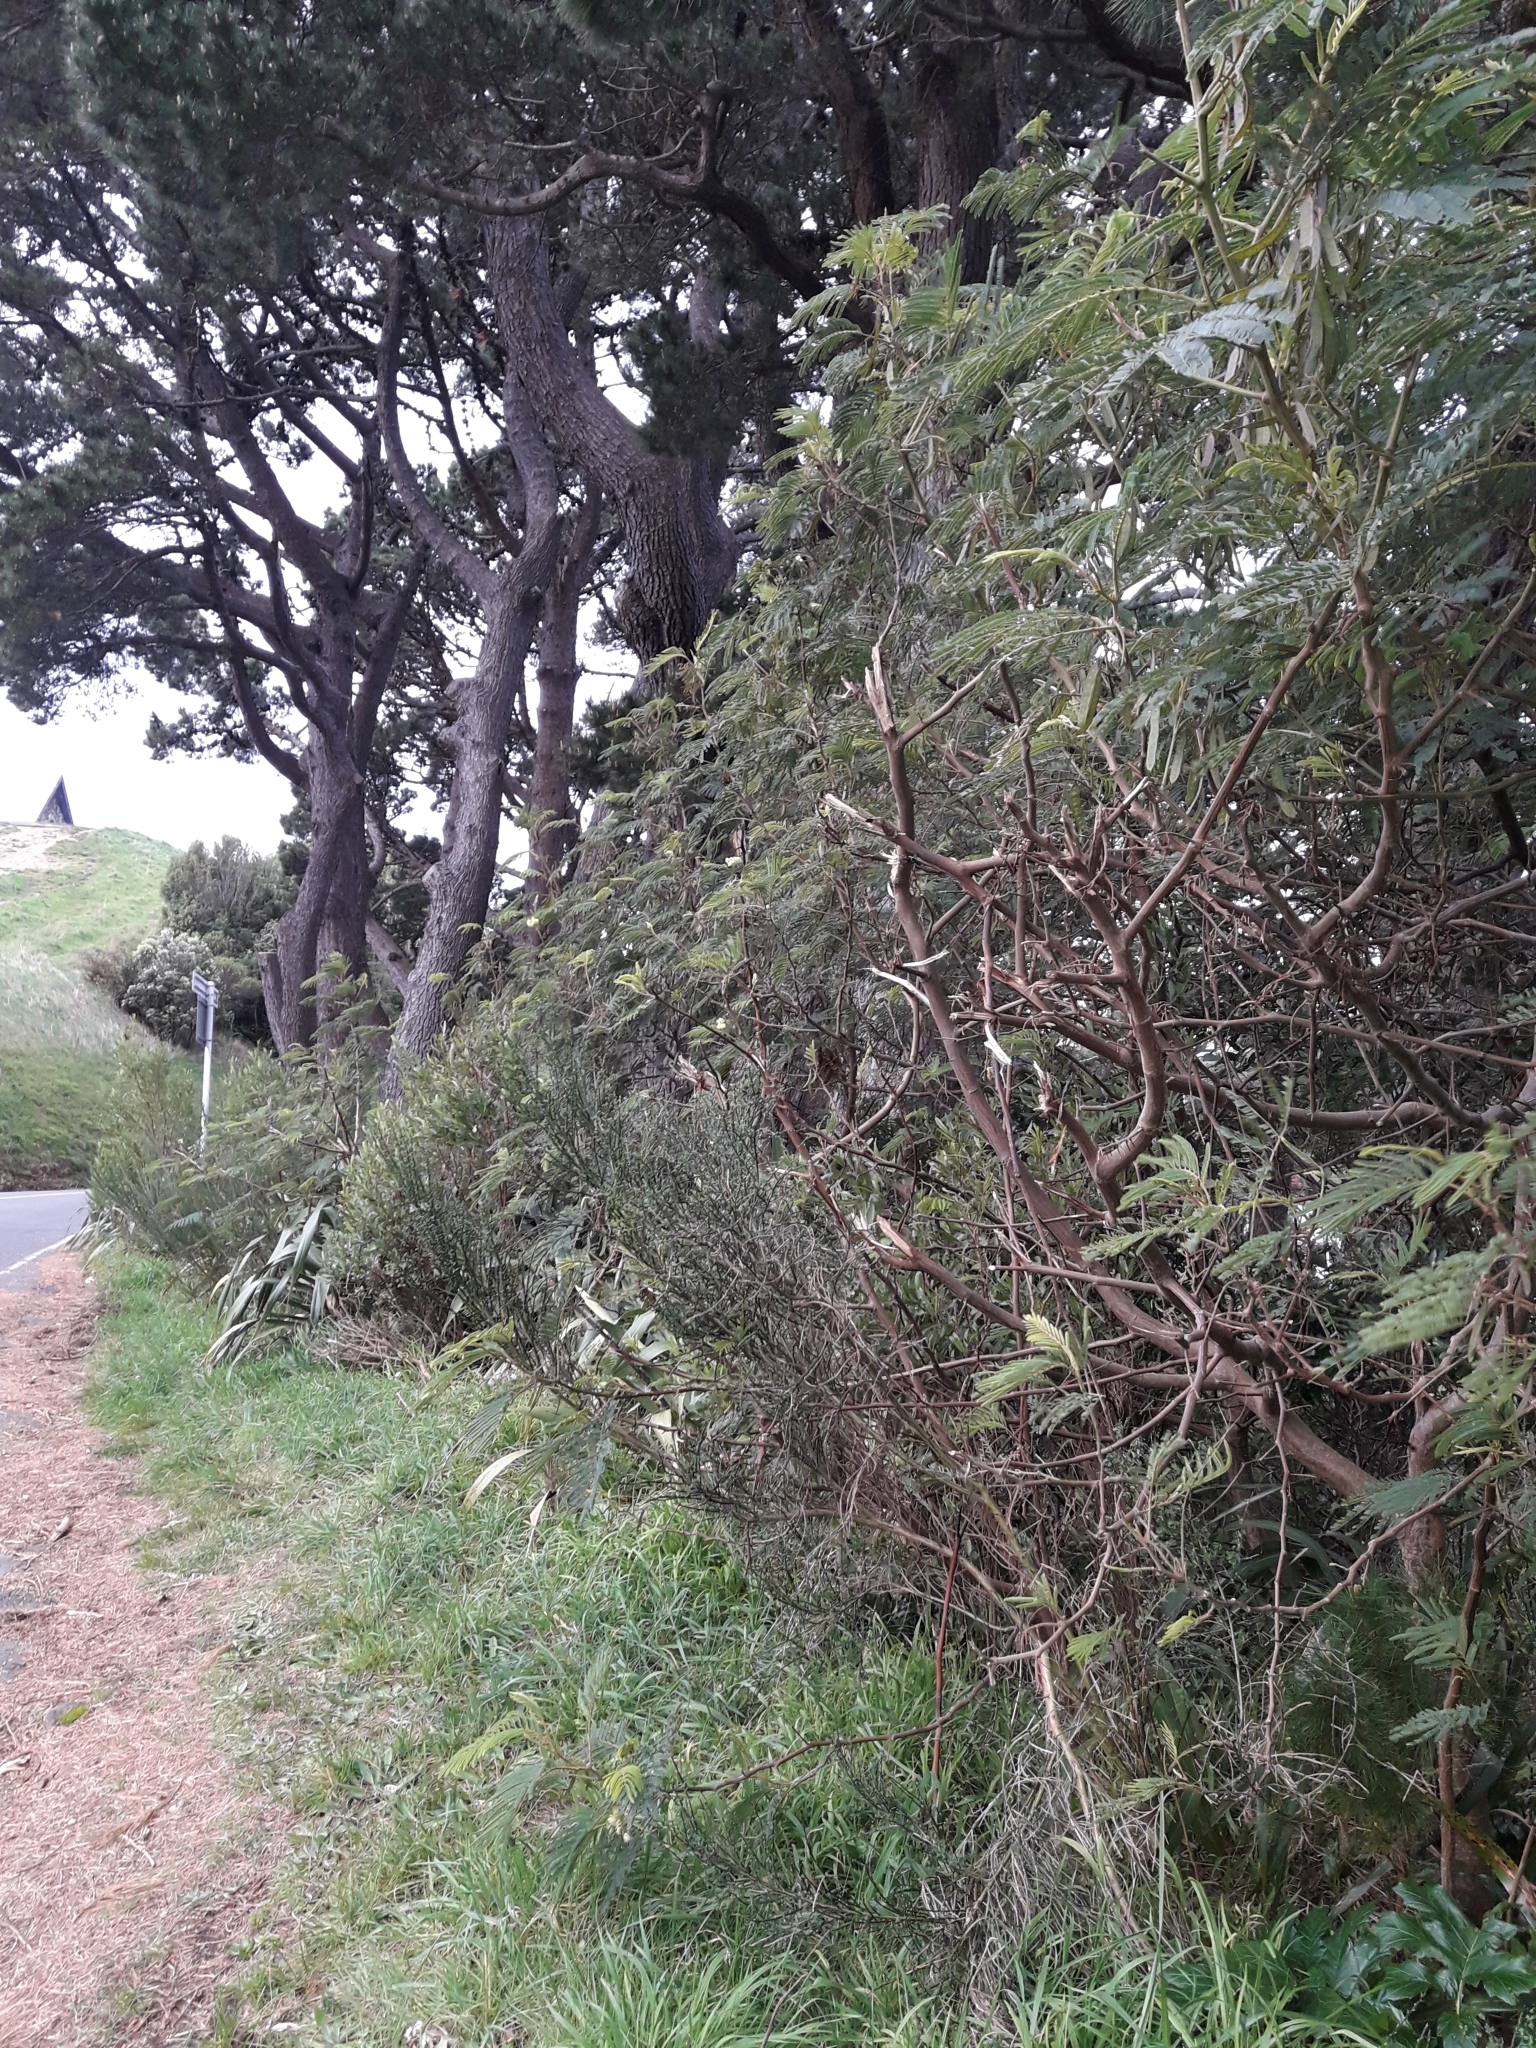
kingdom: Plantae
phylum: Tracheophyta
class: Magnoliopsida
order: Fabales
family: Fabaceae
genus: Paraserianthes
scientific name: Paraserianthes lophantha
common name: Plume albizia
